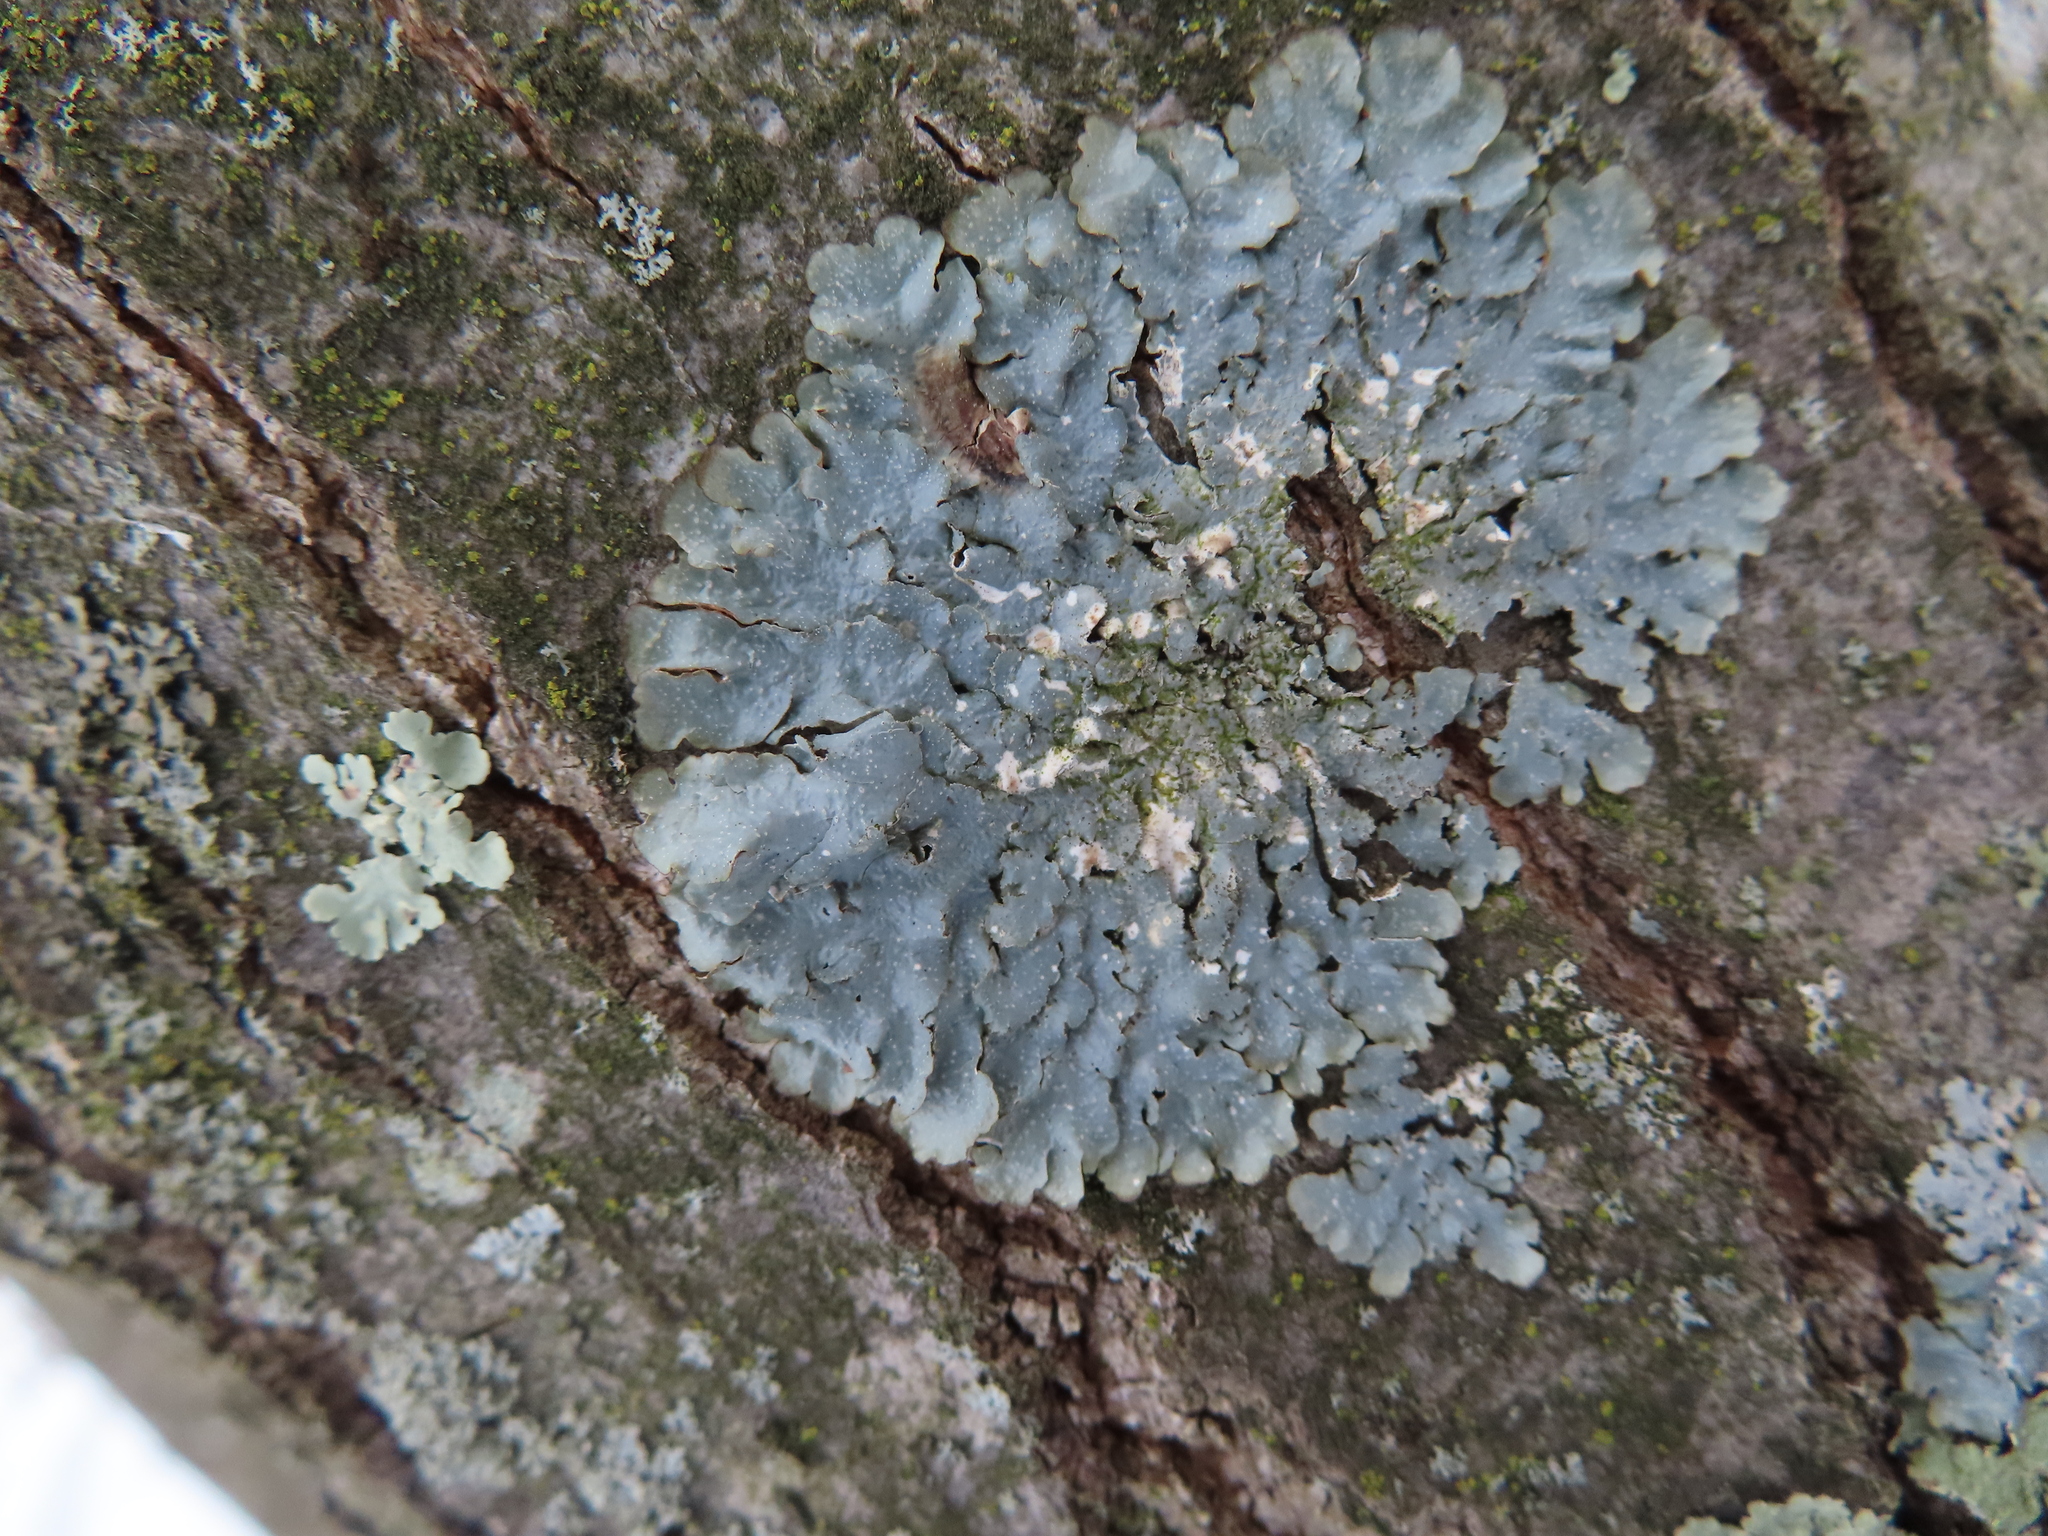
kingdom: Fungi
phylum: Ascomycota
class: Lecanoromycetes
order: Lecanorales
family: Parmeliaceae
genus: Punctelia
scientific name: Punctelia rudecta
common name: Rough speckled shield lichen
